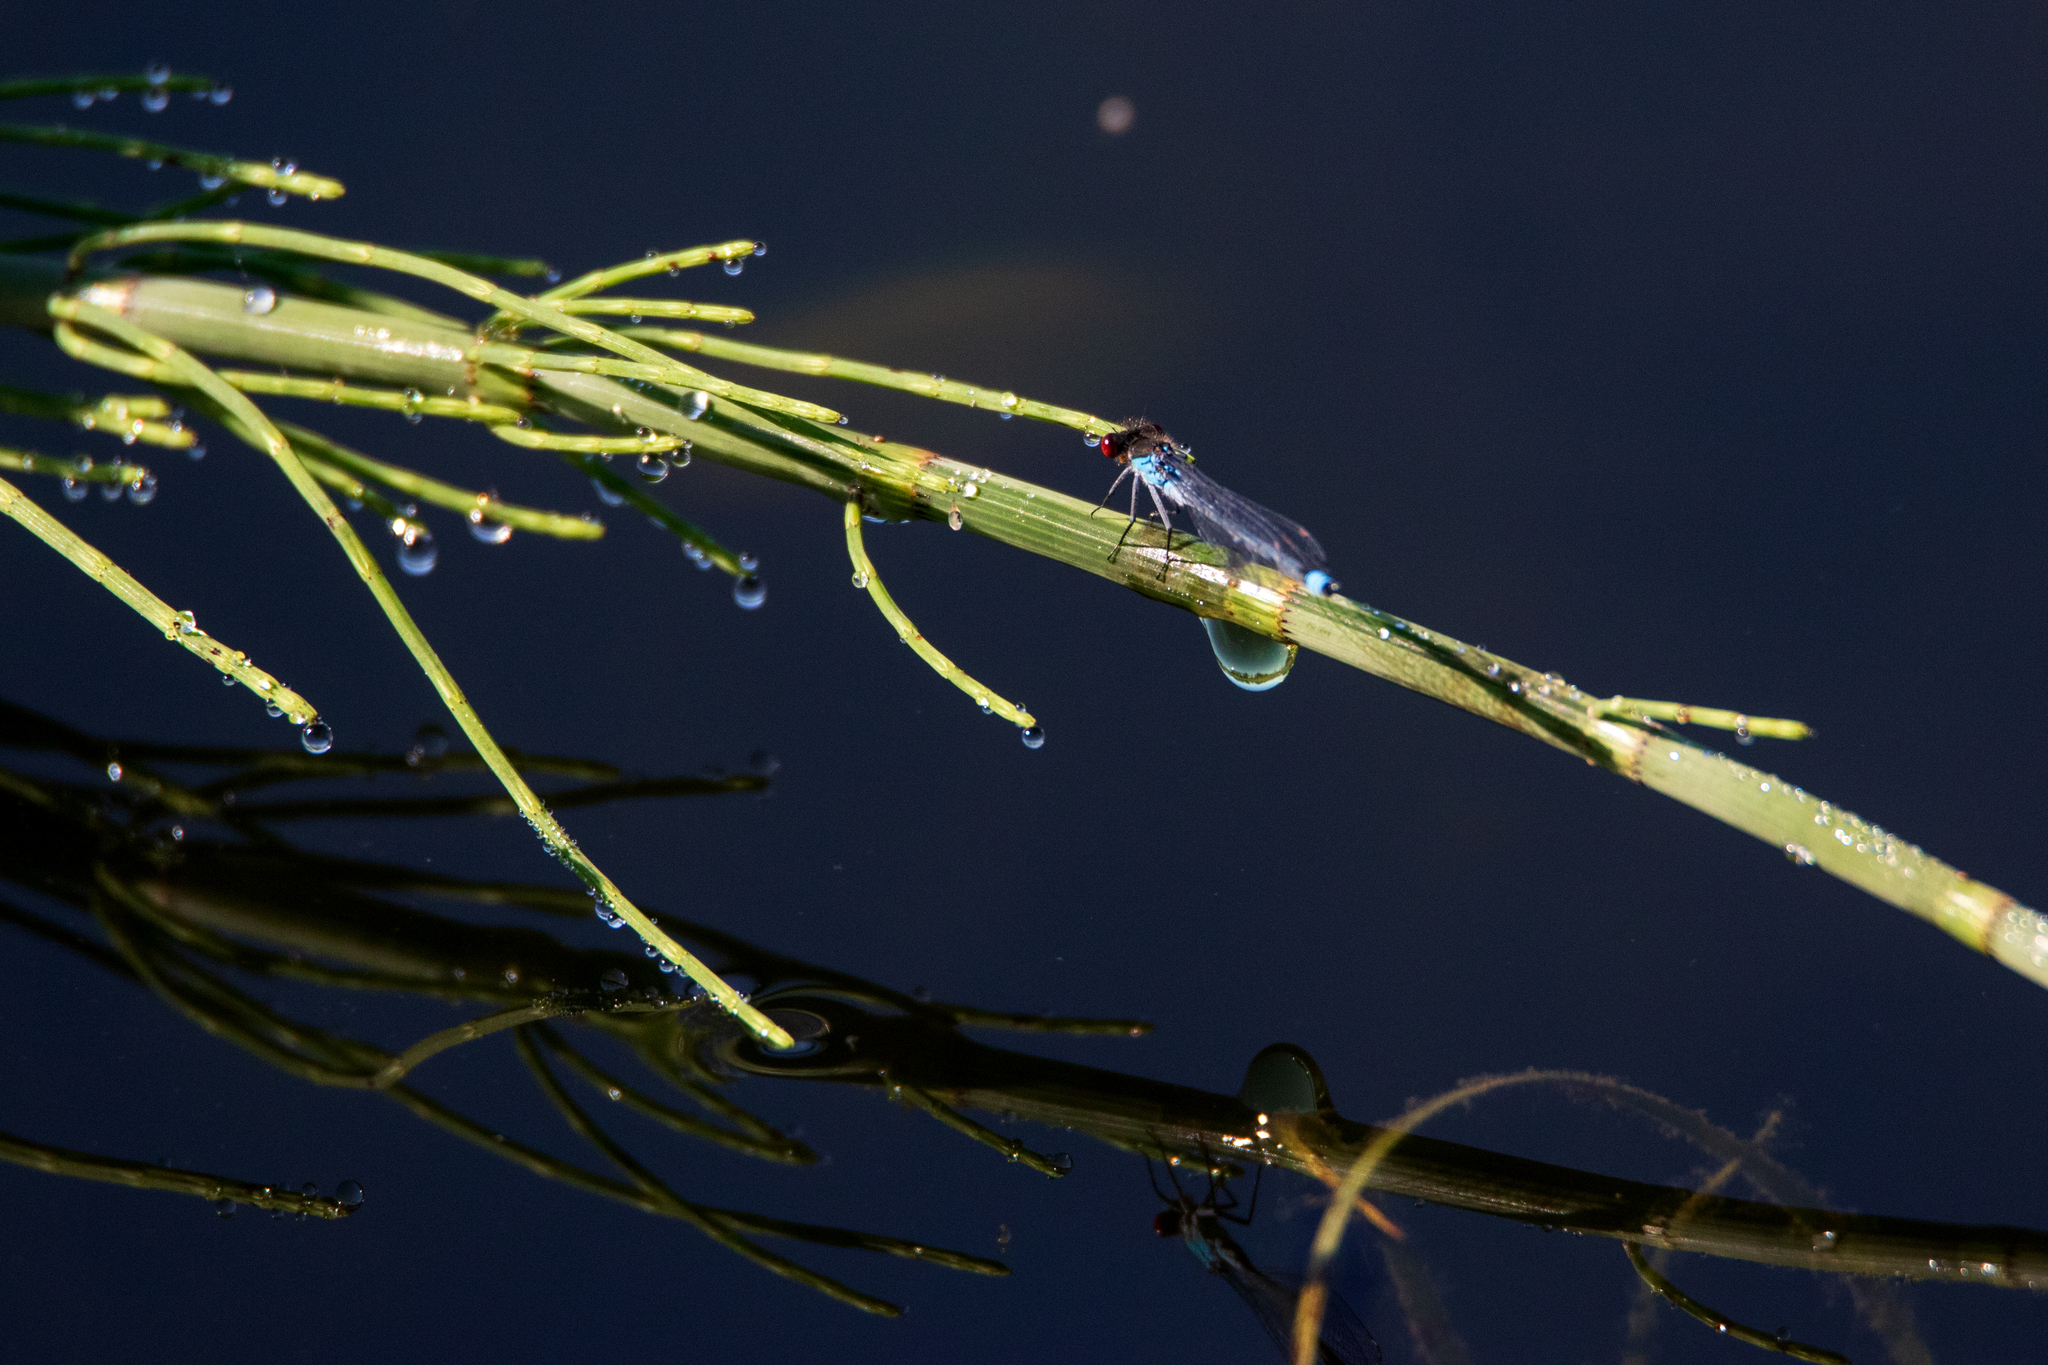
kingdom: Animalia
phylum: Arthropoda
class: Insecta
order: Odonata
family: Coenagrionidae
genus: Erythromma
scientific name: Erythromma najas
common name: Red-eyed damselfly
